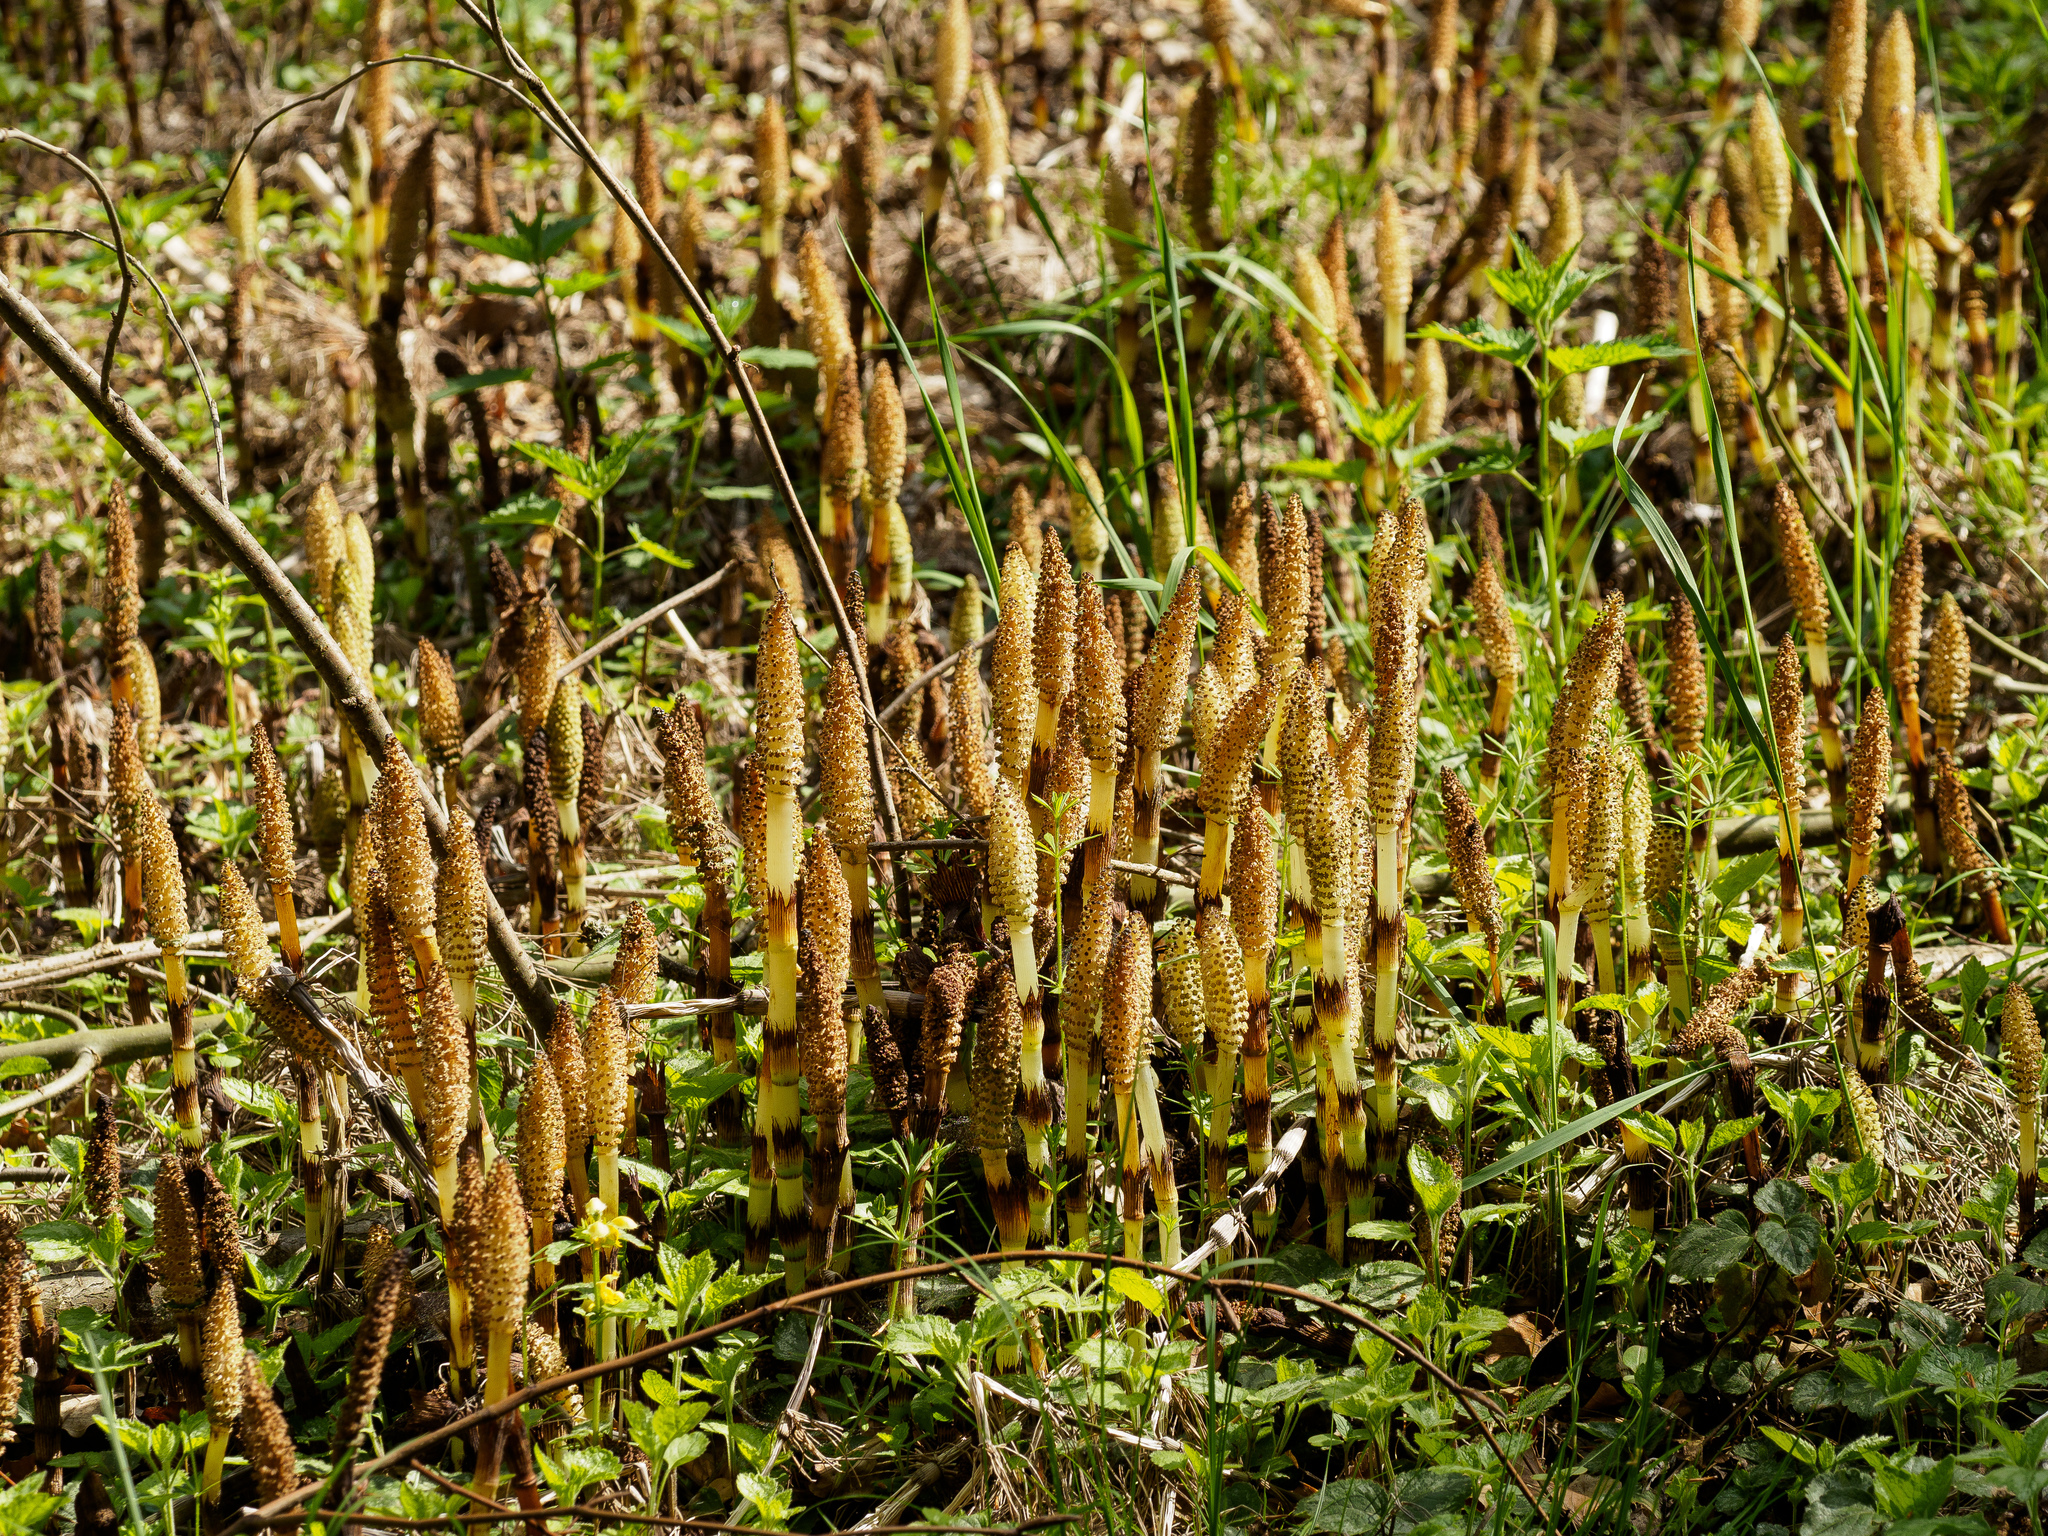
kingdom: Plantae
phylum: Tracheophyta
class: Polypodiopsida
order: Equisetales
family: Equisetaceae
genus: Equisetum
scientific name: Equisetum telmateia
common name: Great horsetail
